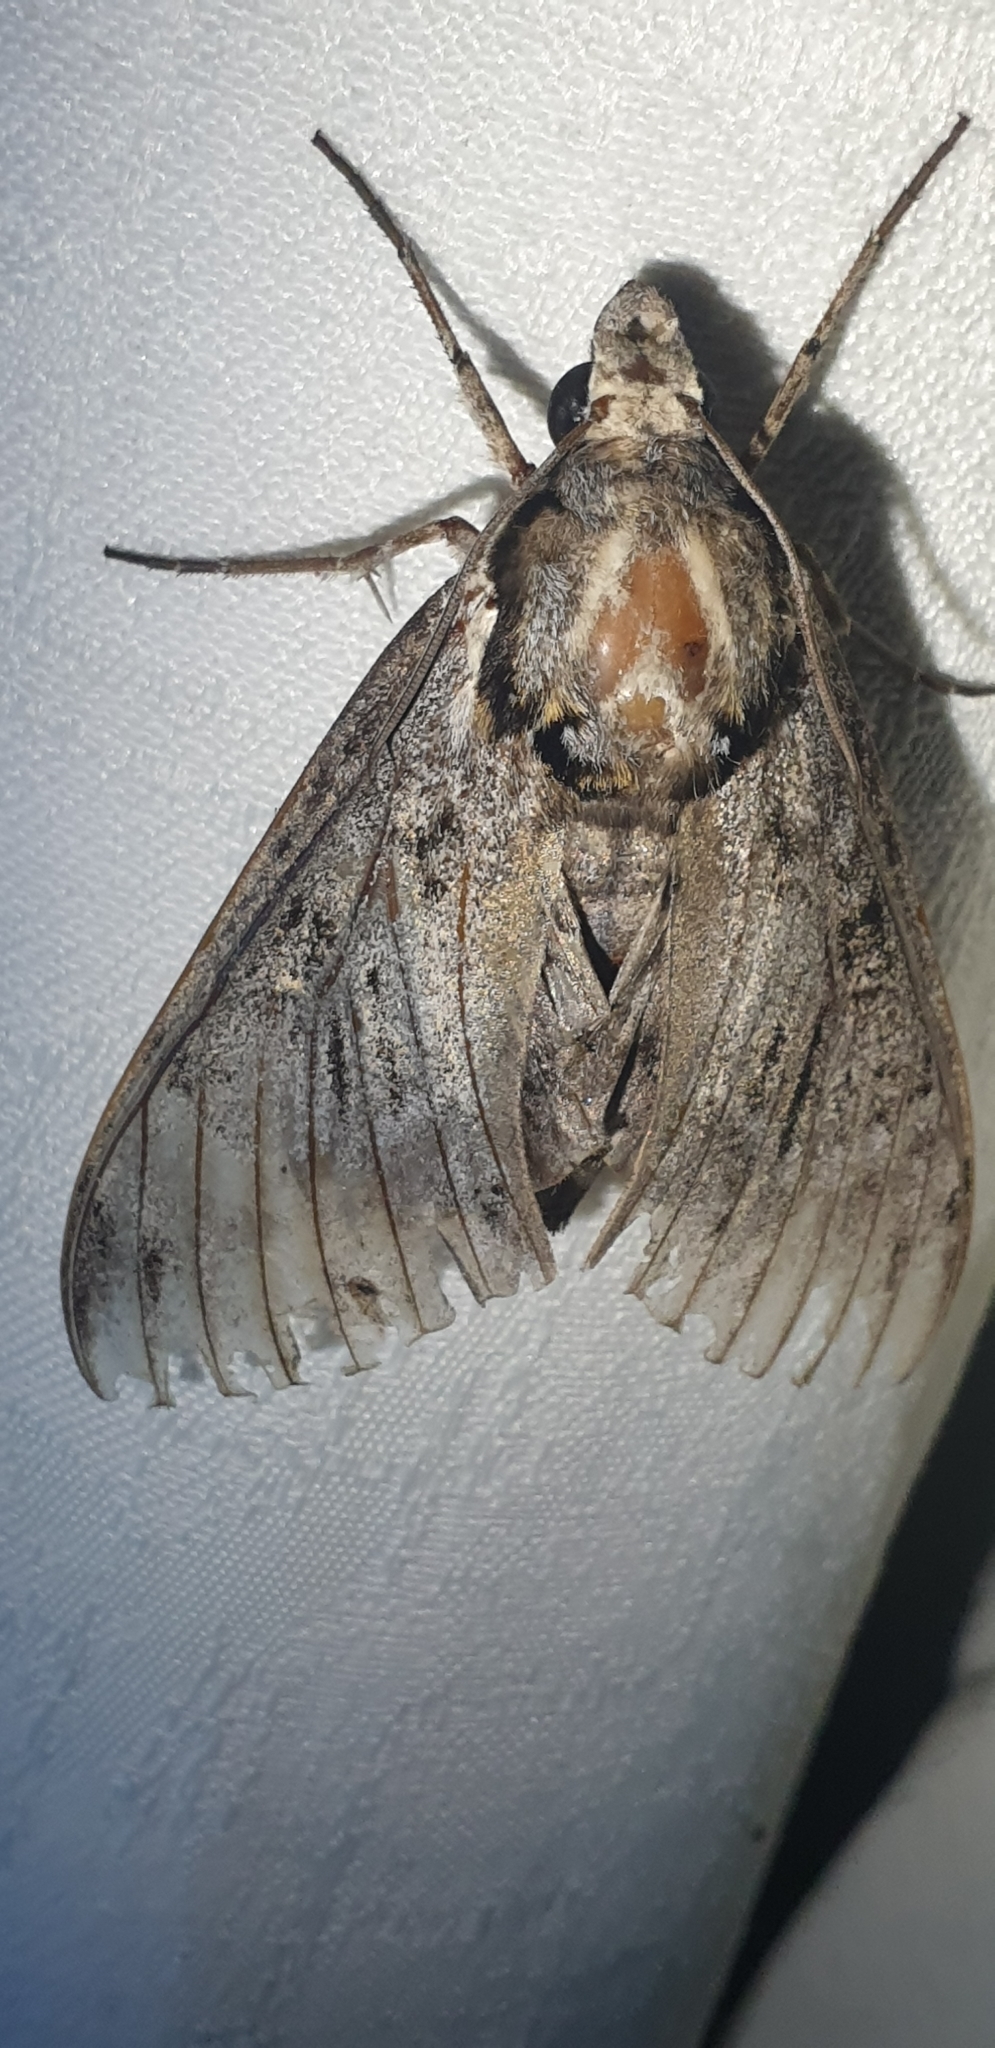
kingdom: Animalia
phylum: Arthropoda
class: Insecta
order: Lepidoptera
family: Sphingidae
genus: Psilogramma
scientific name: Psilogramma casuarinae
